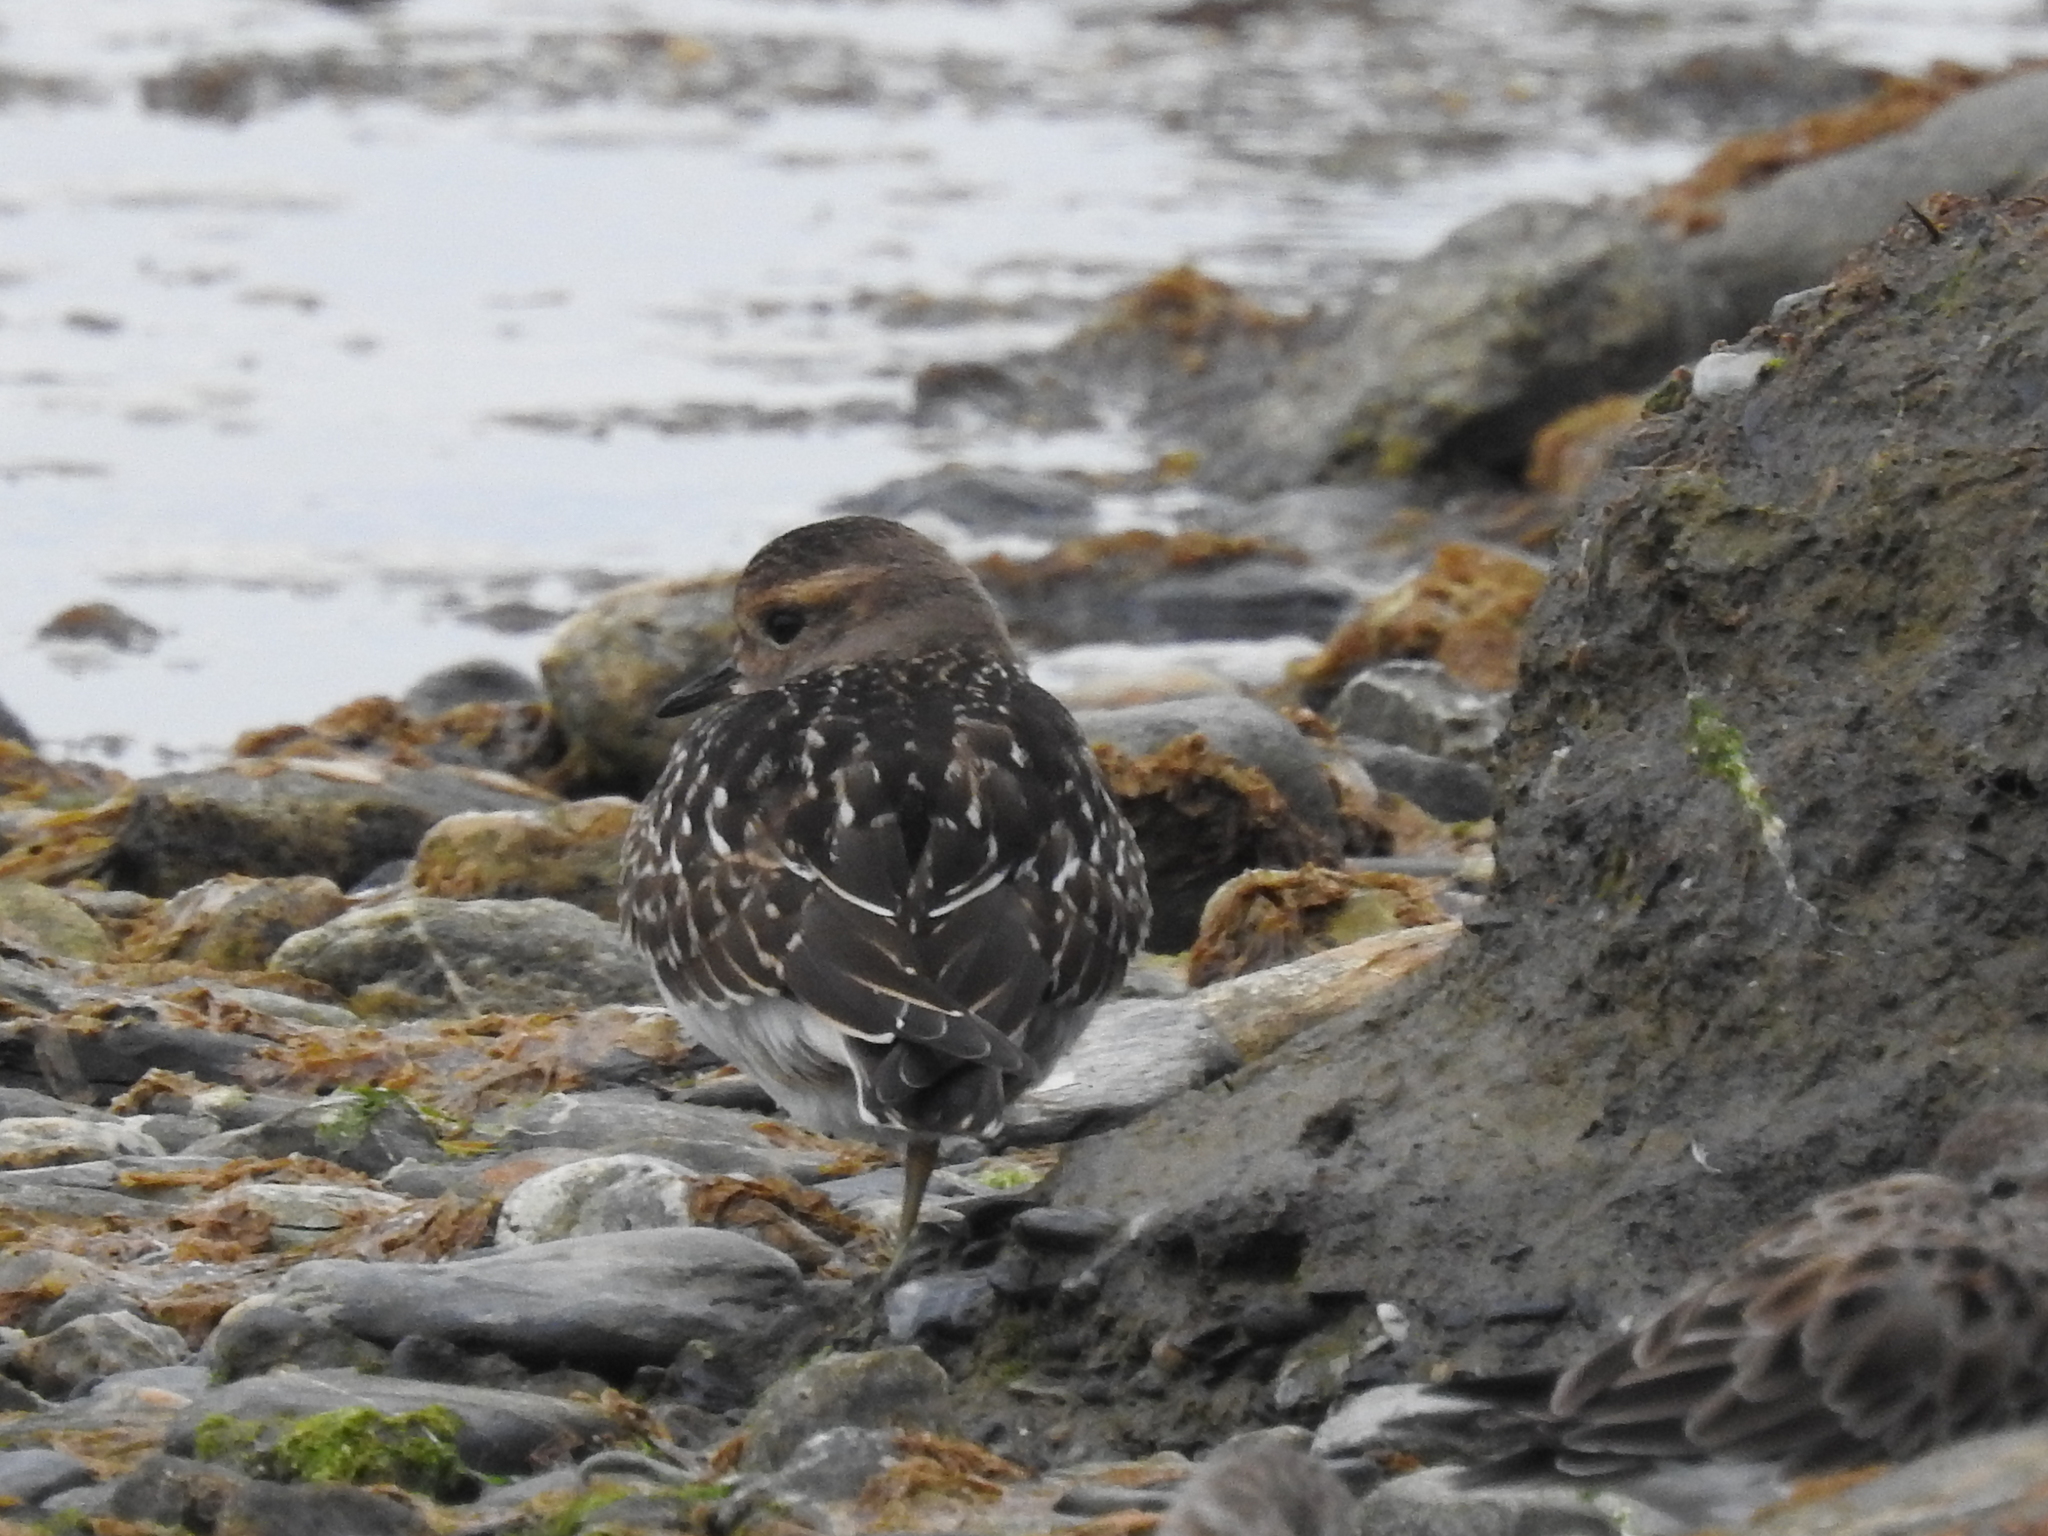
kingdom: Animalia
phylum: Chordata
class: Aves
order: Charadriiformes
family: Charadriidae
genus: Charadrius
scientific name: Charadrius modestus
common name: Rufous-chested plover
